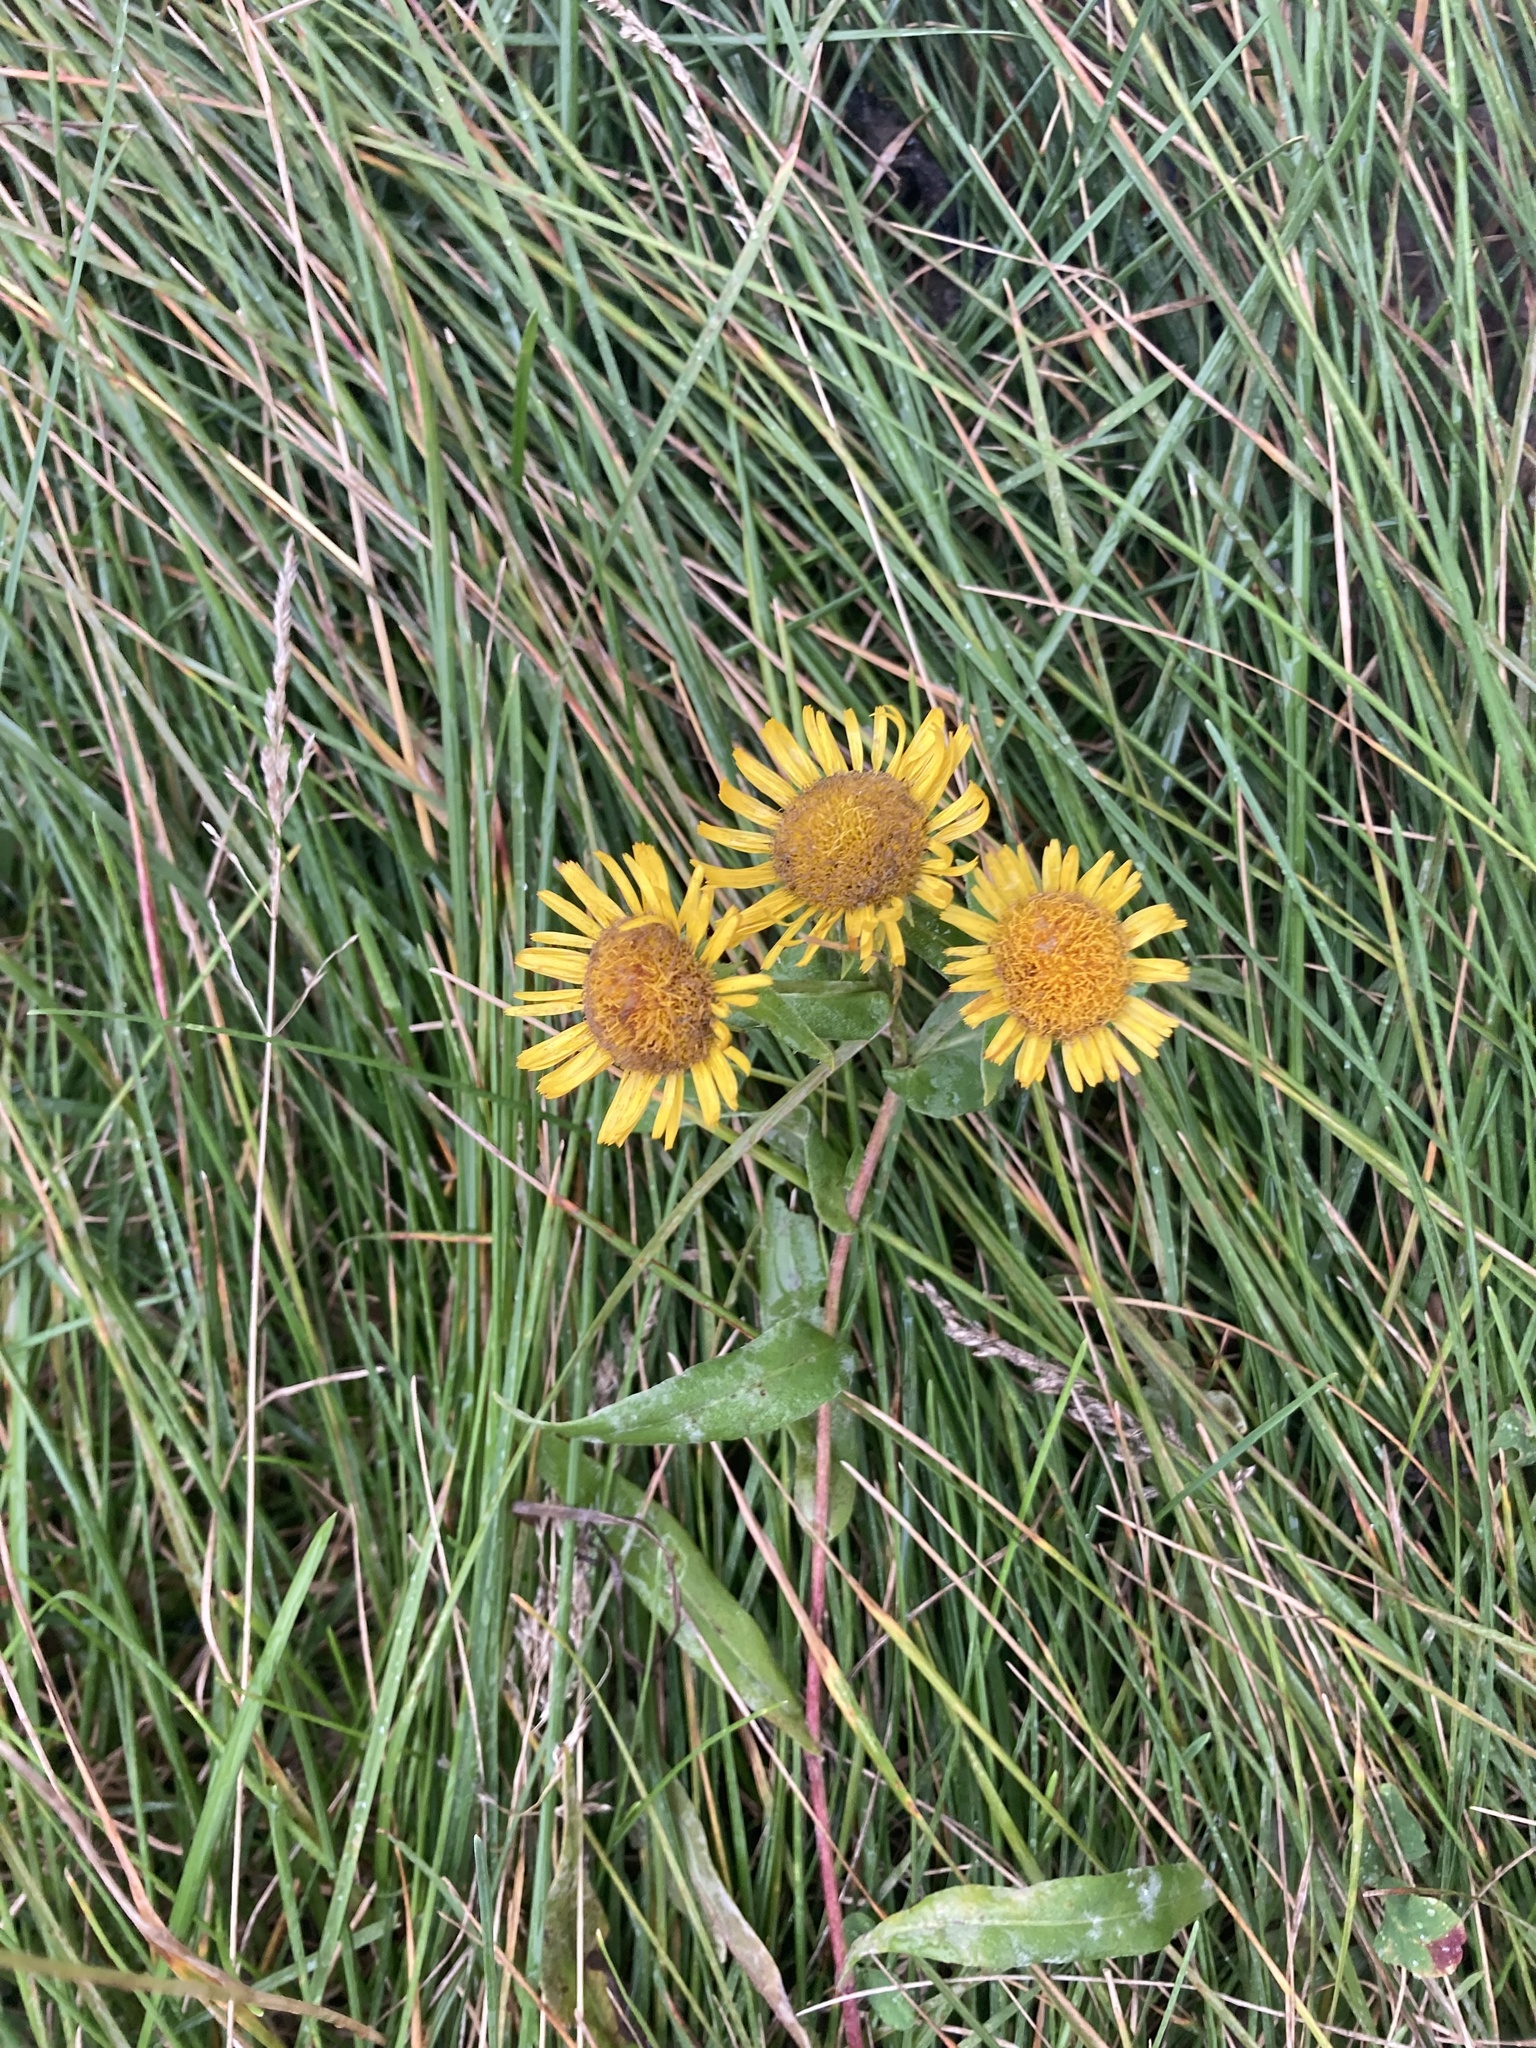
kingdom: Plantae
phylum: Tracheophyta
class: Magnoliopsida
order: Asterales
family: Asteraceae
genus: Pentanema
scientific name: Pentanema britannicum
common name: British elecampane
